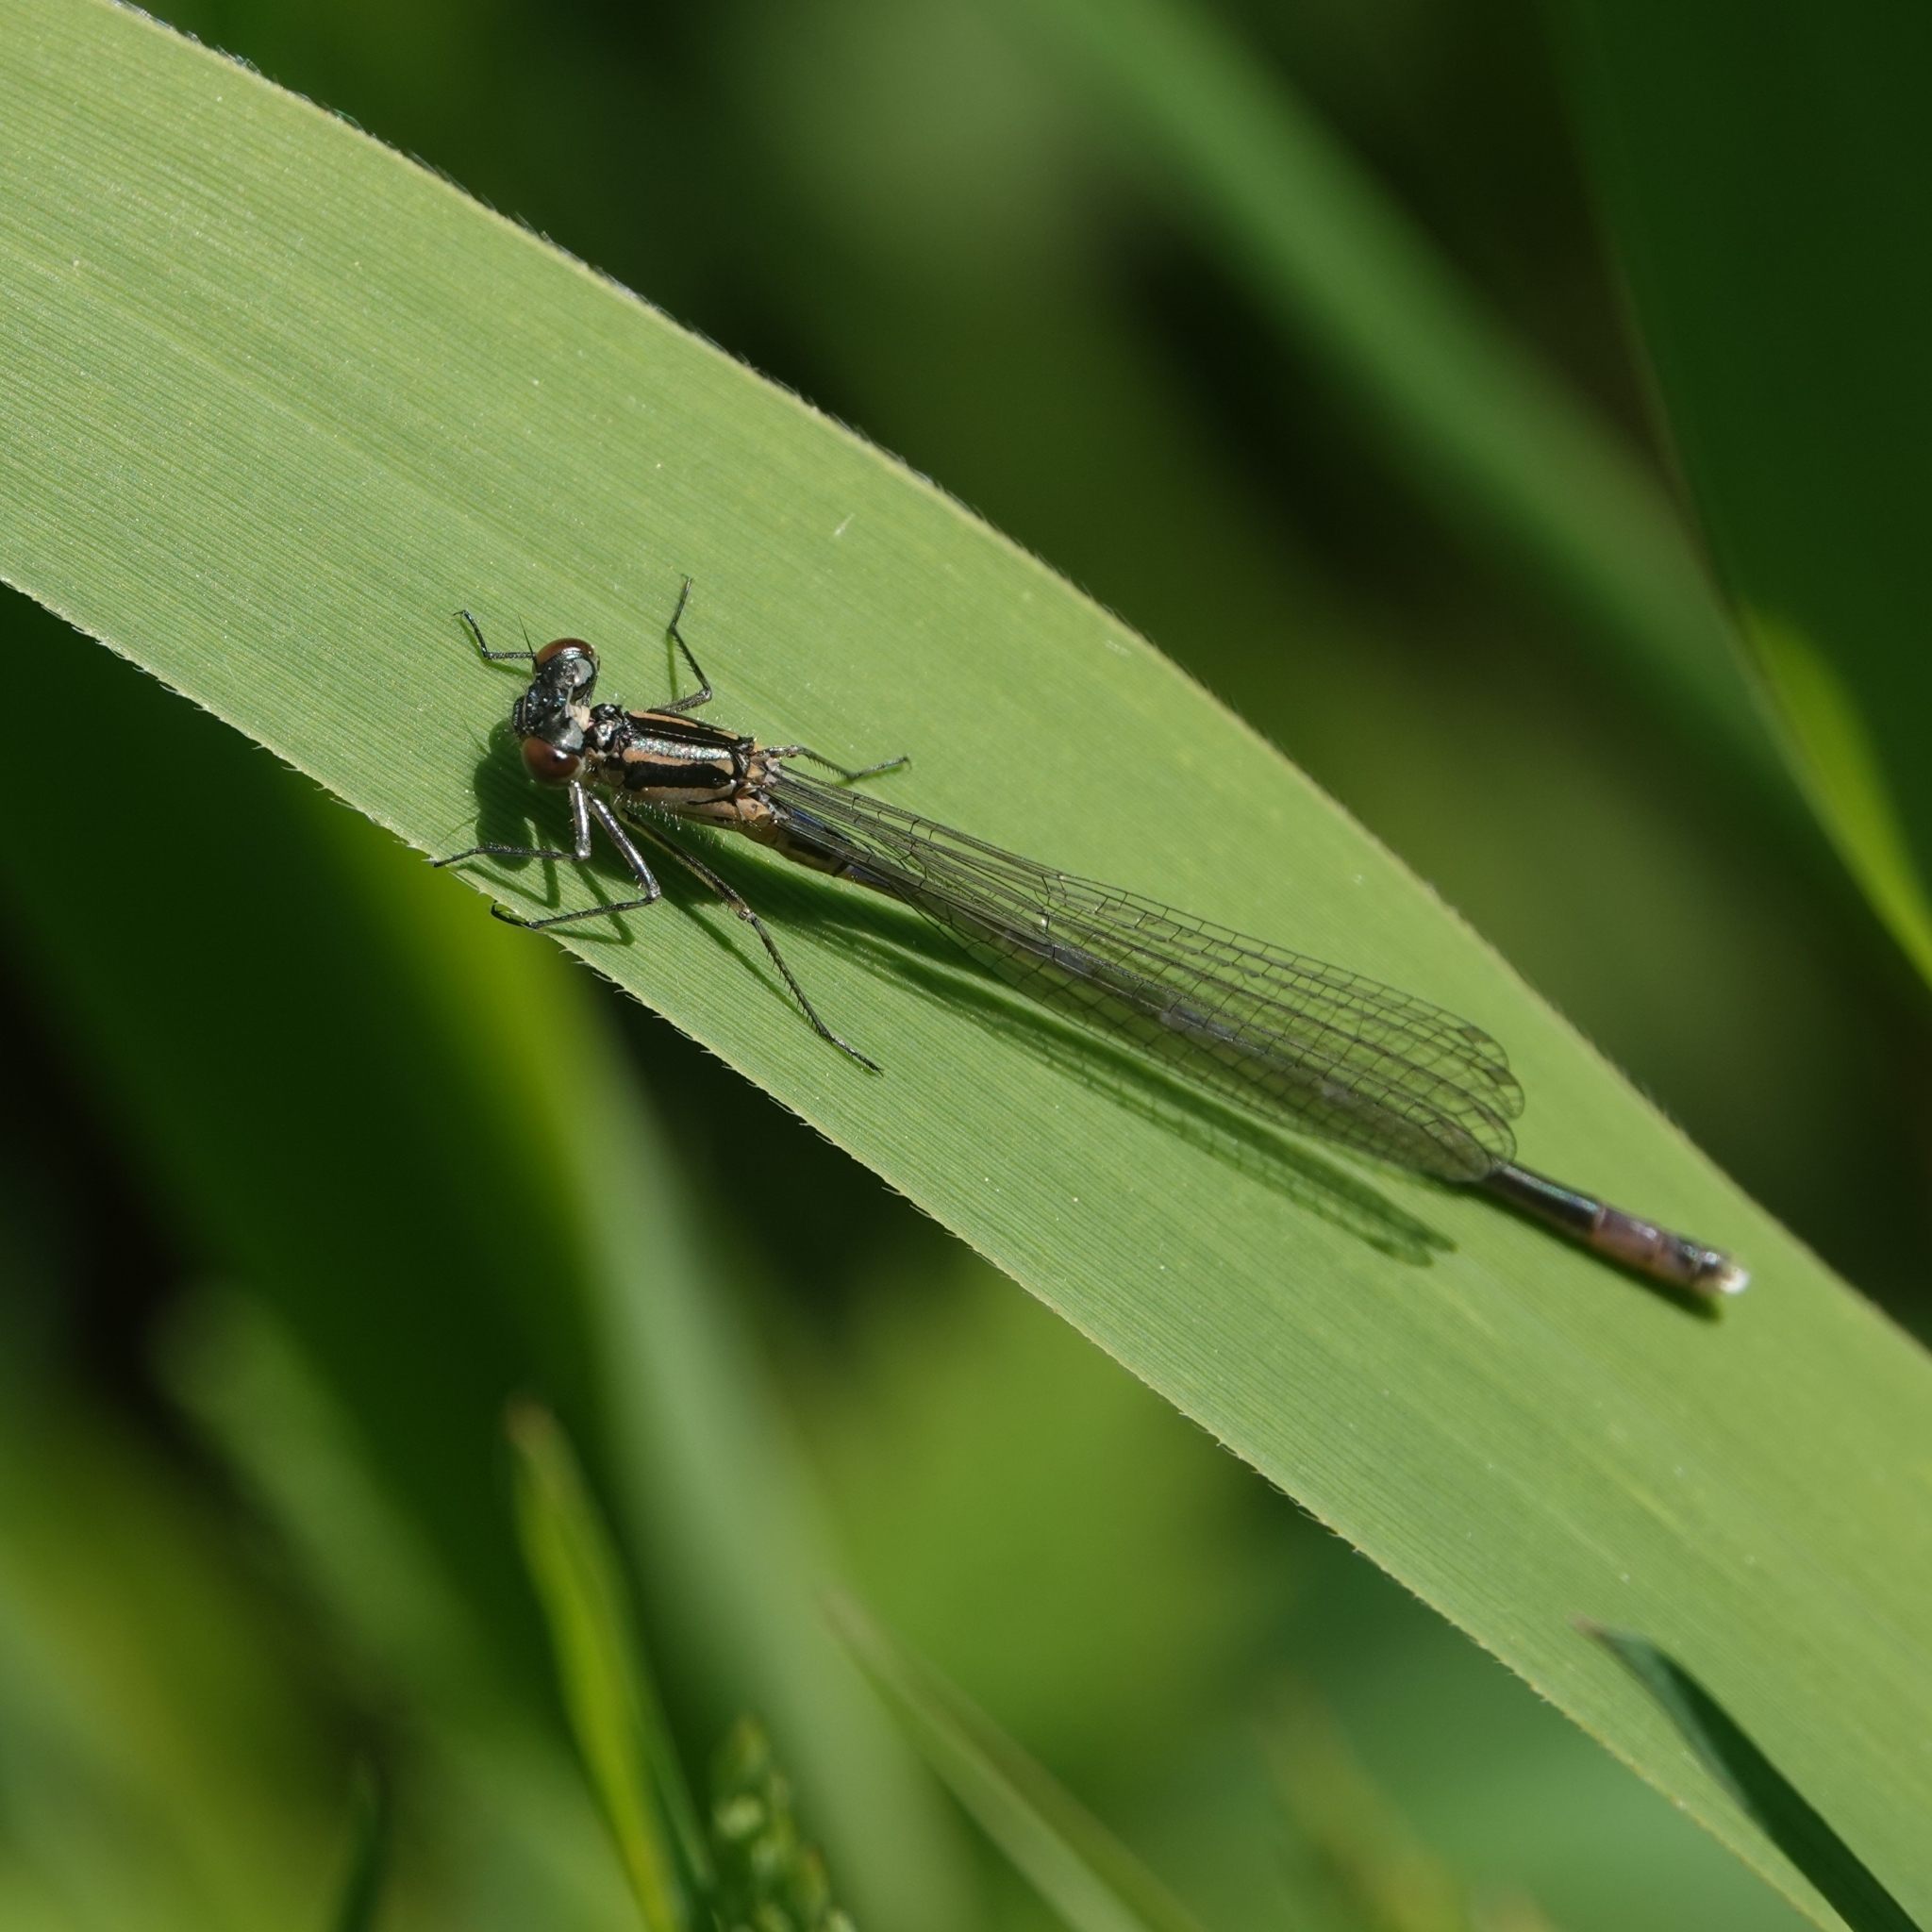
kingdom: Animalia
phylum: Arthropoda
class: Insecta
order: Odonata
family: Coenagrionidae
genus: Coenagrion
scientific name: Coenagrion pulchellum
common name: Variable bluet
